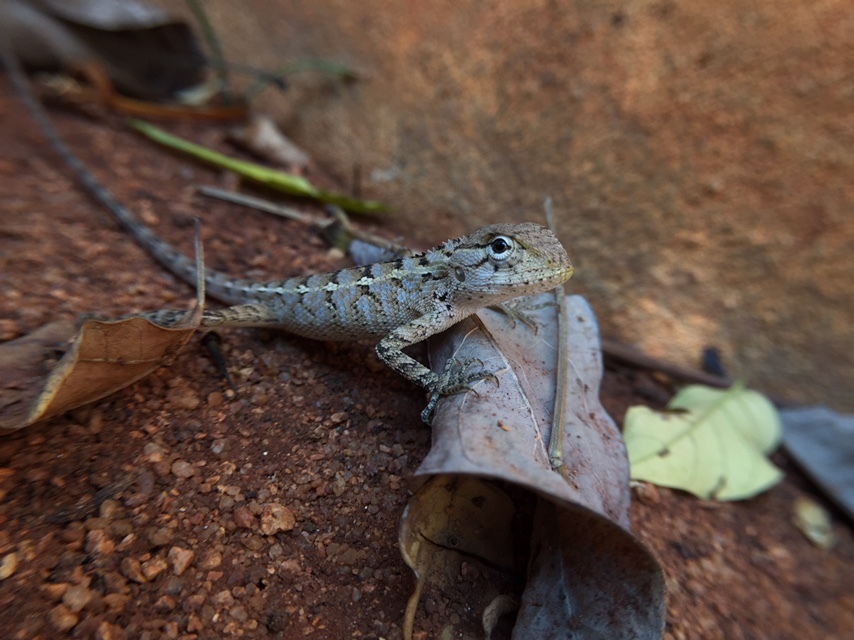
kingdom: Animalia
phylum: Chordata
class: Squamata
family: Agamidae
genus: Calotes
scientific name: Calotes versicolor
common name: Oriental garden lizard
